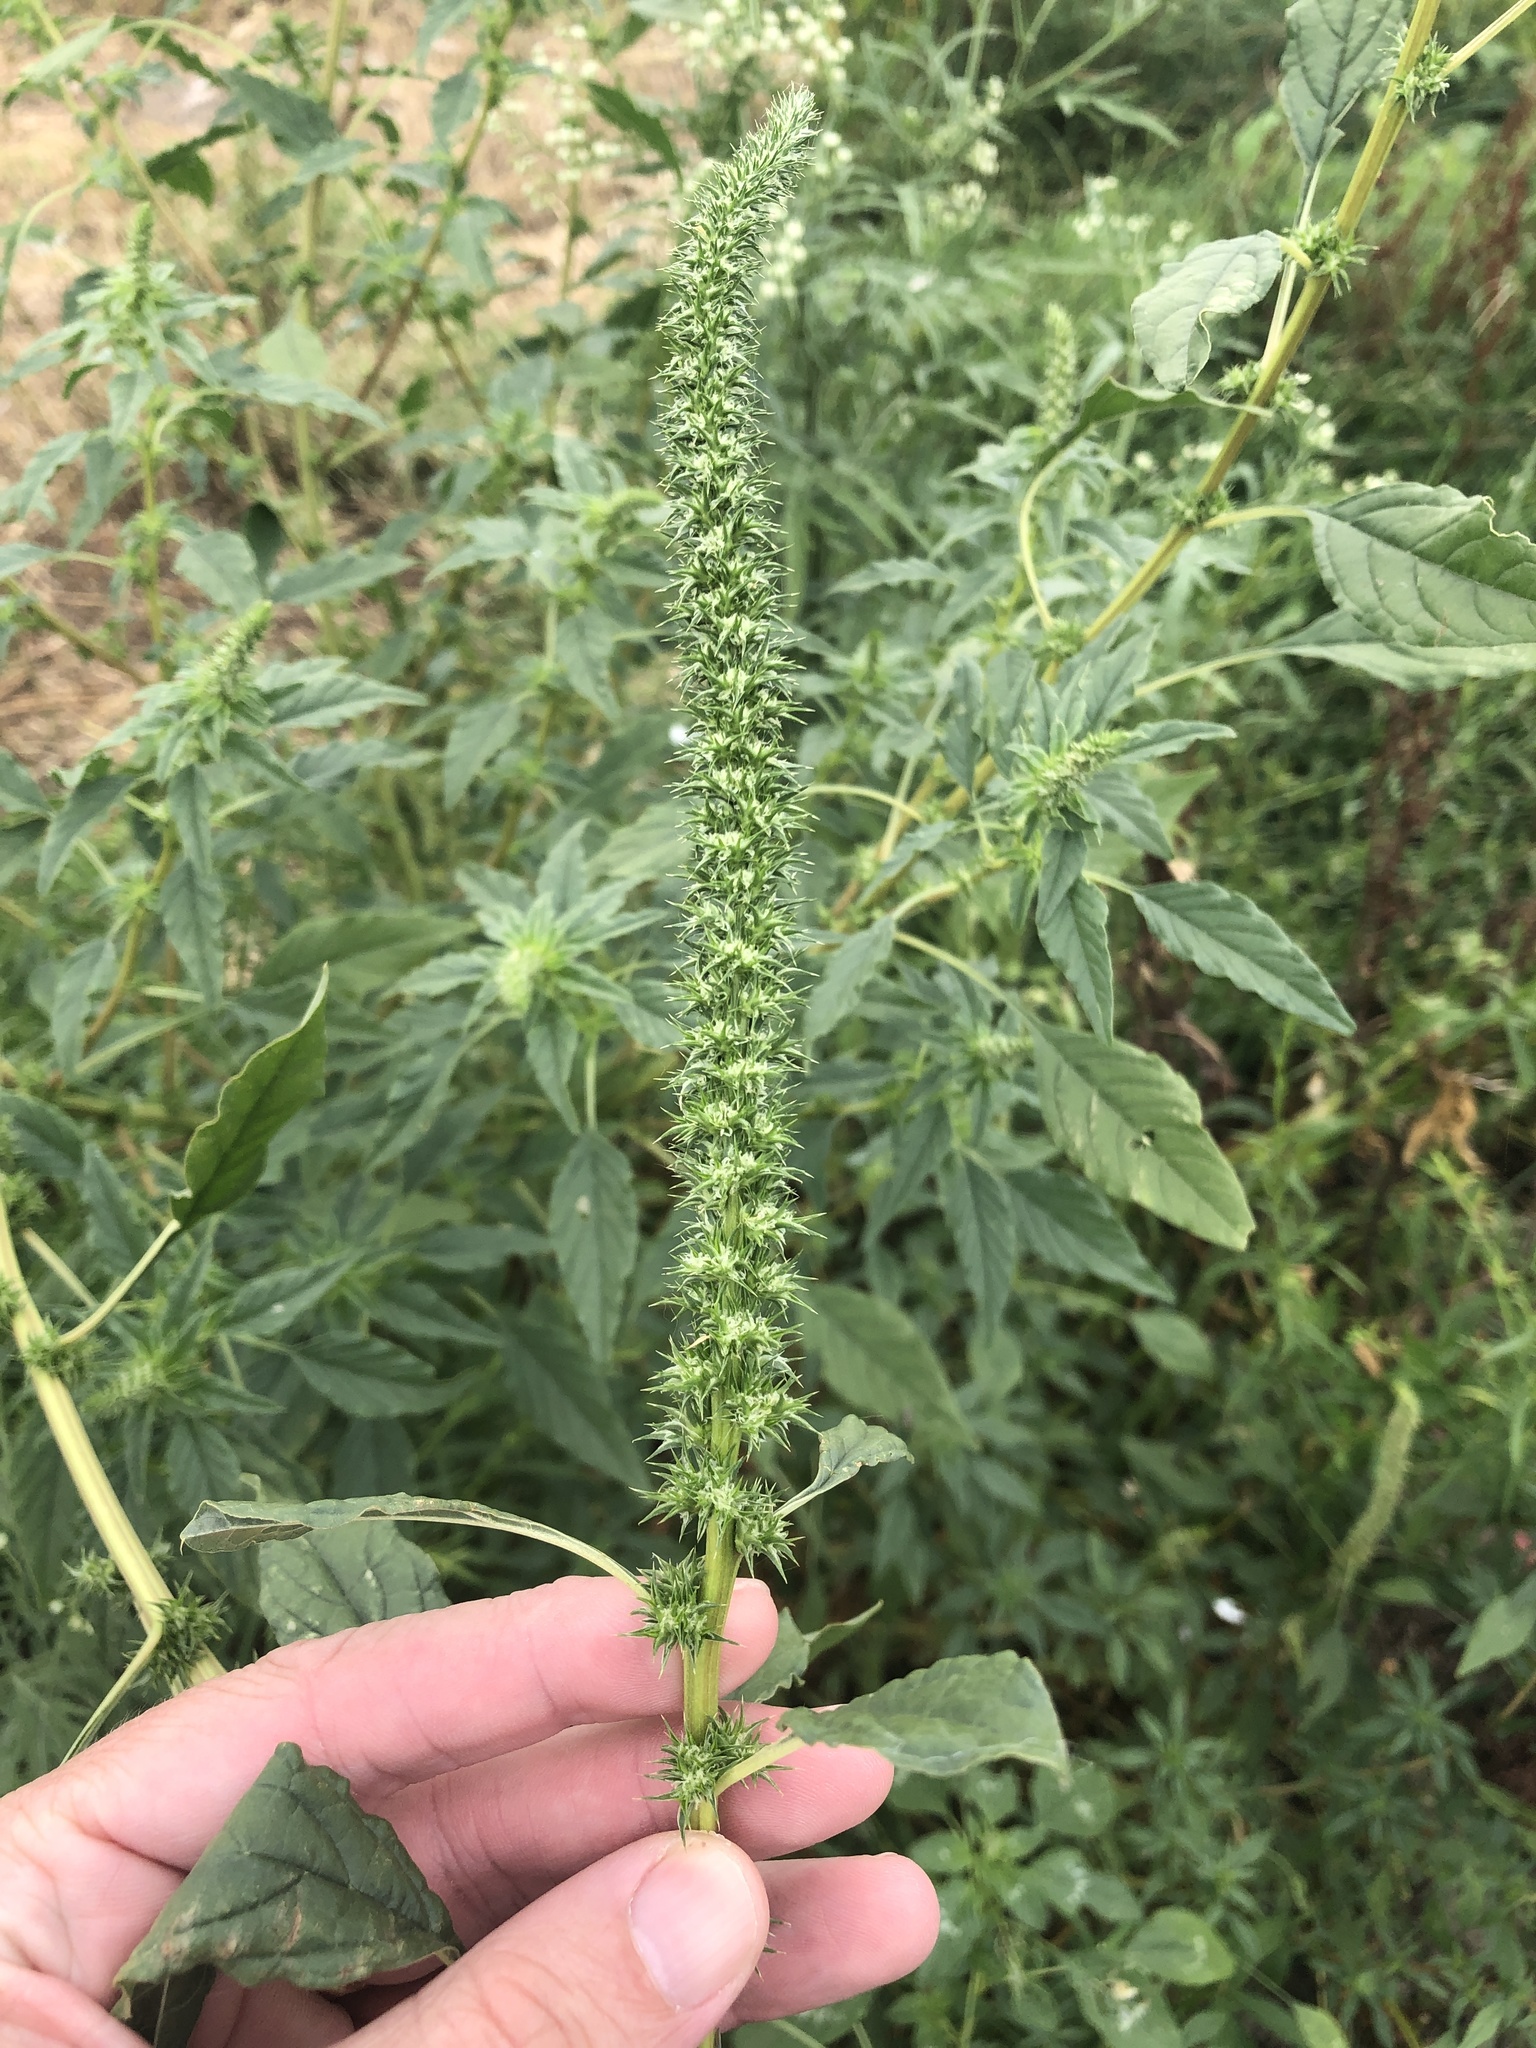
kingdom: Plantae
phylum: Tracheophyta
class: Magnoliopsida
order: Caryophyllales
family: Amaranthaceae
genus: Amaranthus
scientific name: Amaranthus palmeri
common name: Dioecious amaranth
